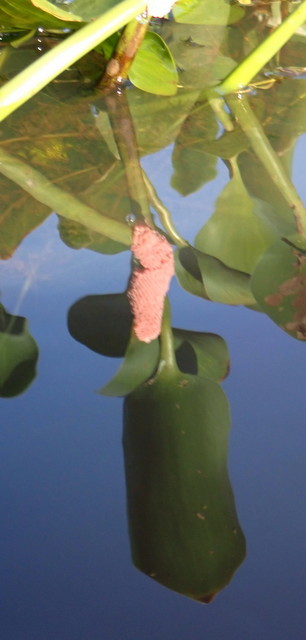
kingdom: Animalia
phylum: Mollusca
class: Gastropoda
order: Architaenioglossa
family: Ampullariidae
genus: Pomacea
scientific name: Pomacea maculata
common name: Giant applesnail
